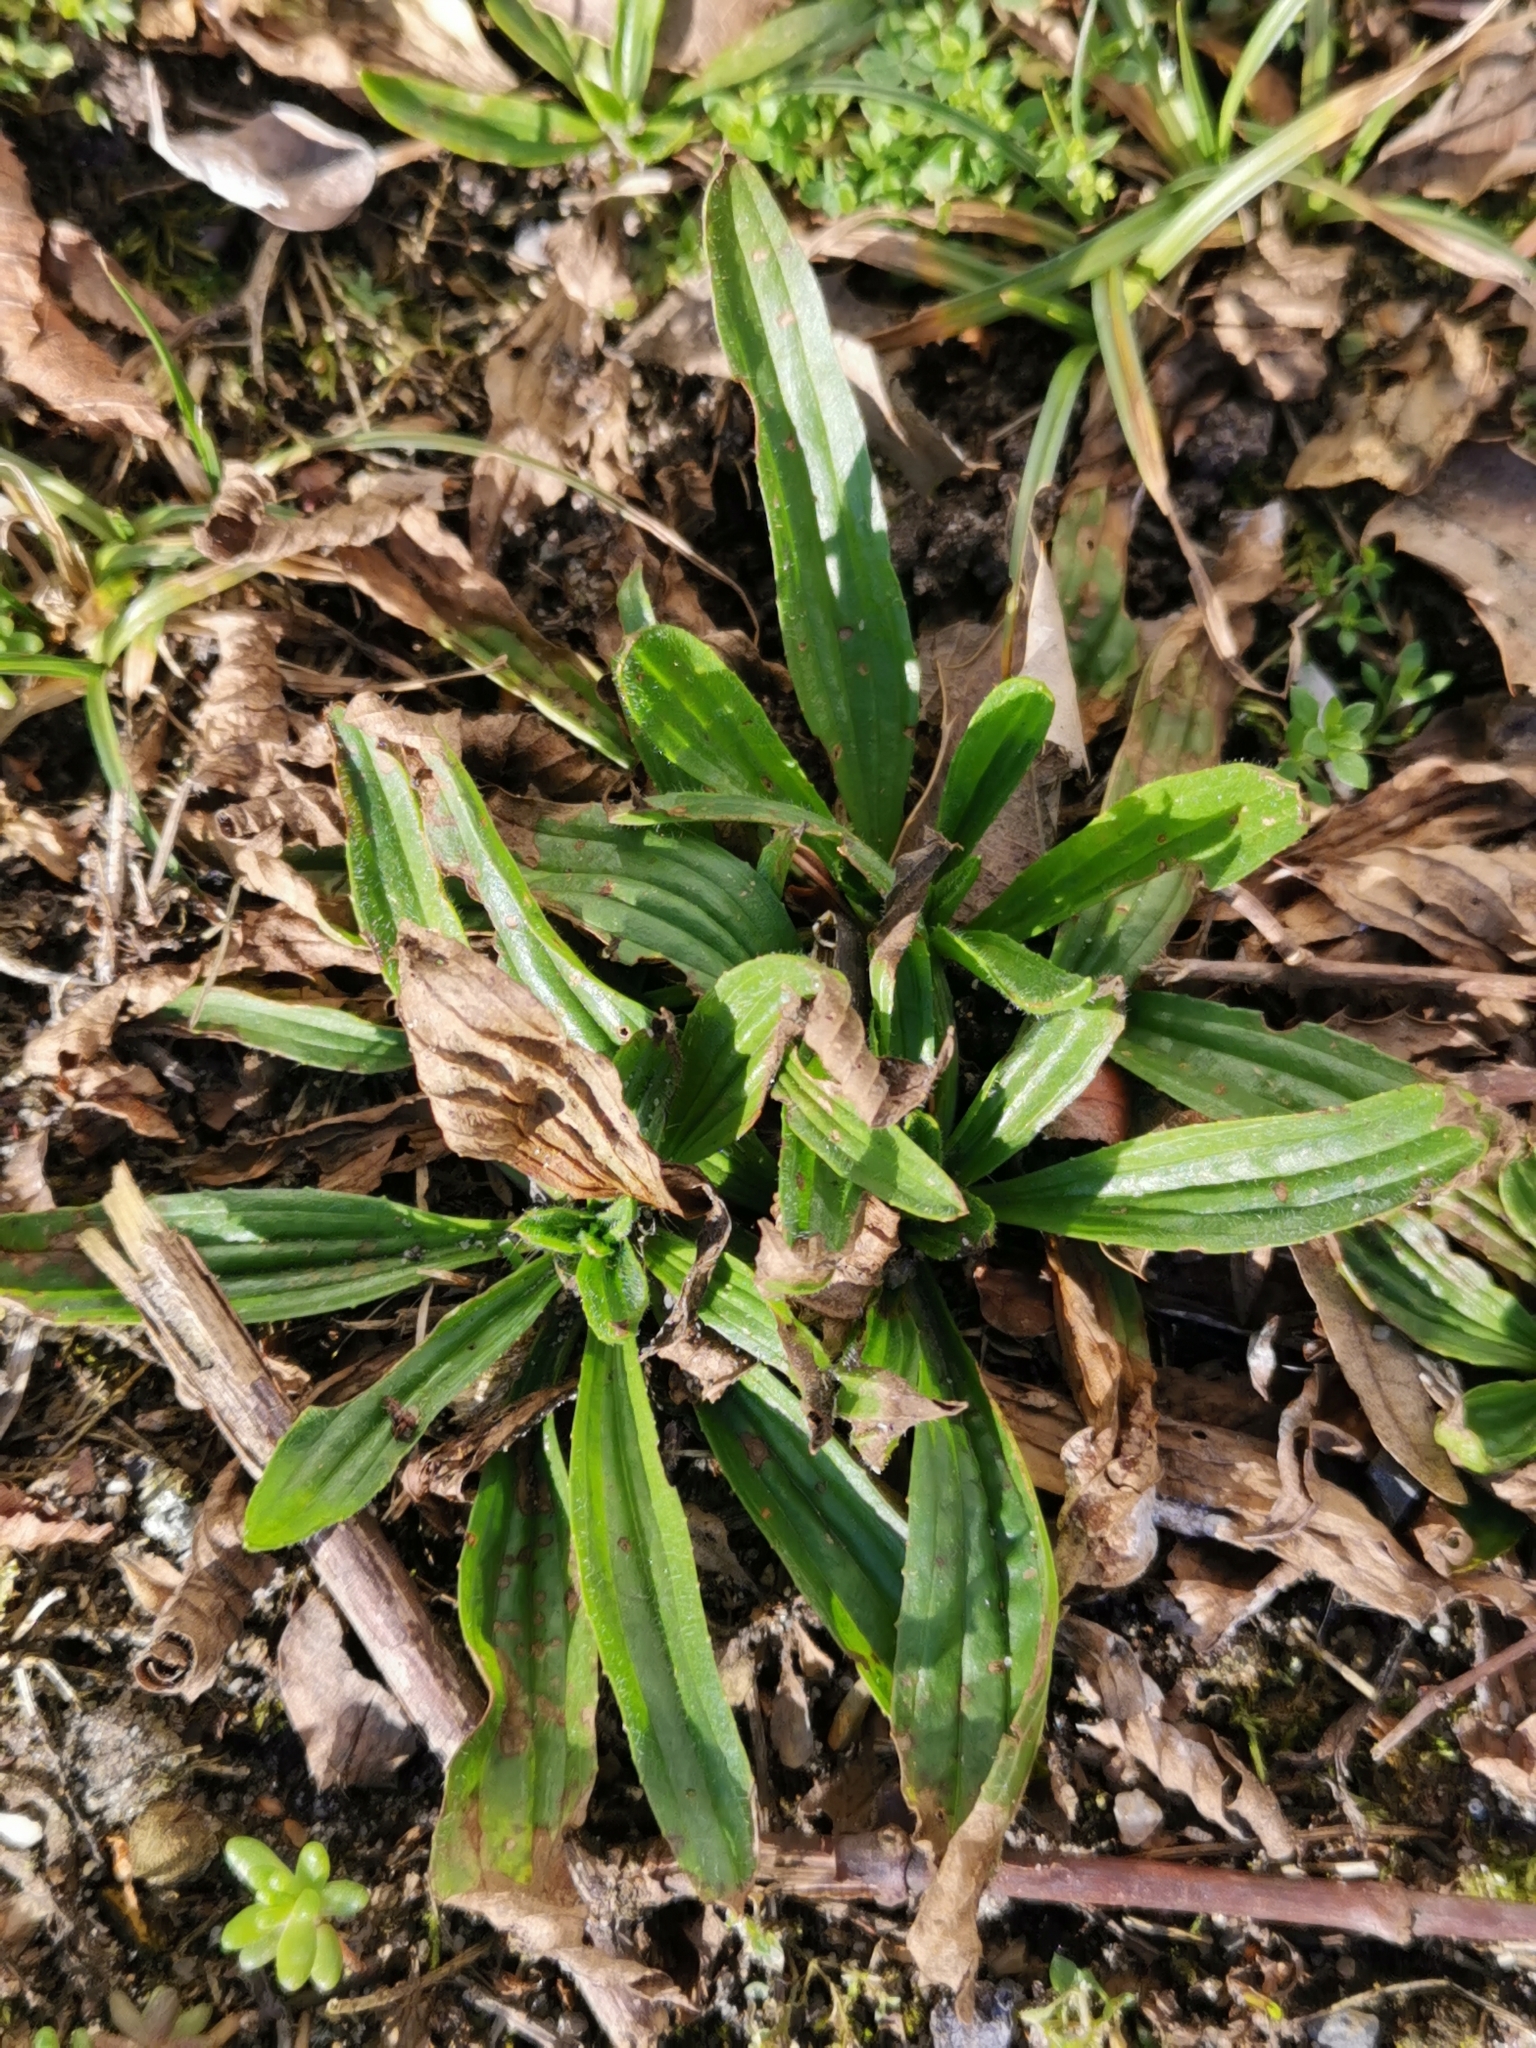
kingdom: Plantae
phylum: Tracheophyta
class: Magnoliopsida
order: Lamiales
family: Plantaginaceae
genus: Plantago
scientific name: Plantago lanceolata
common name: Ribwort plantain
